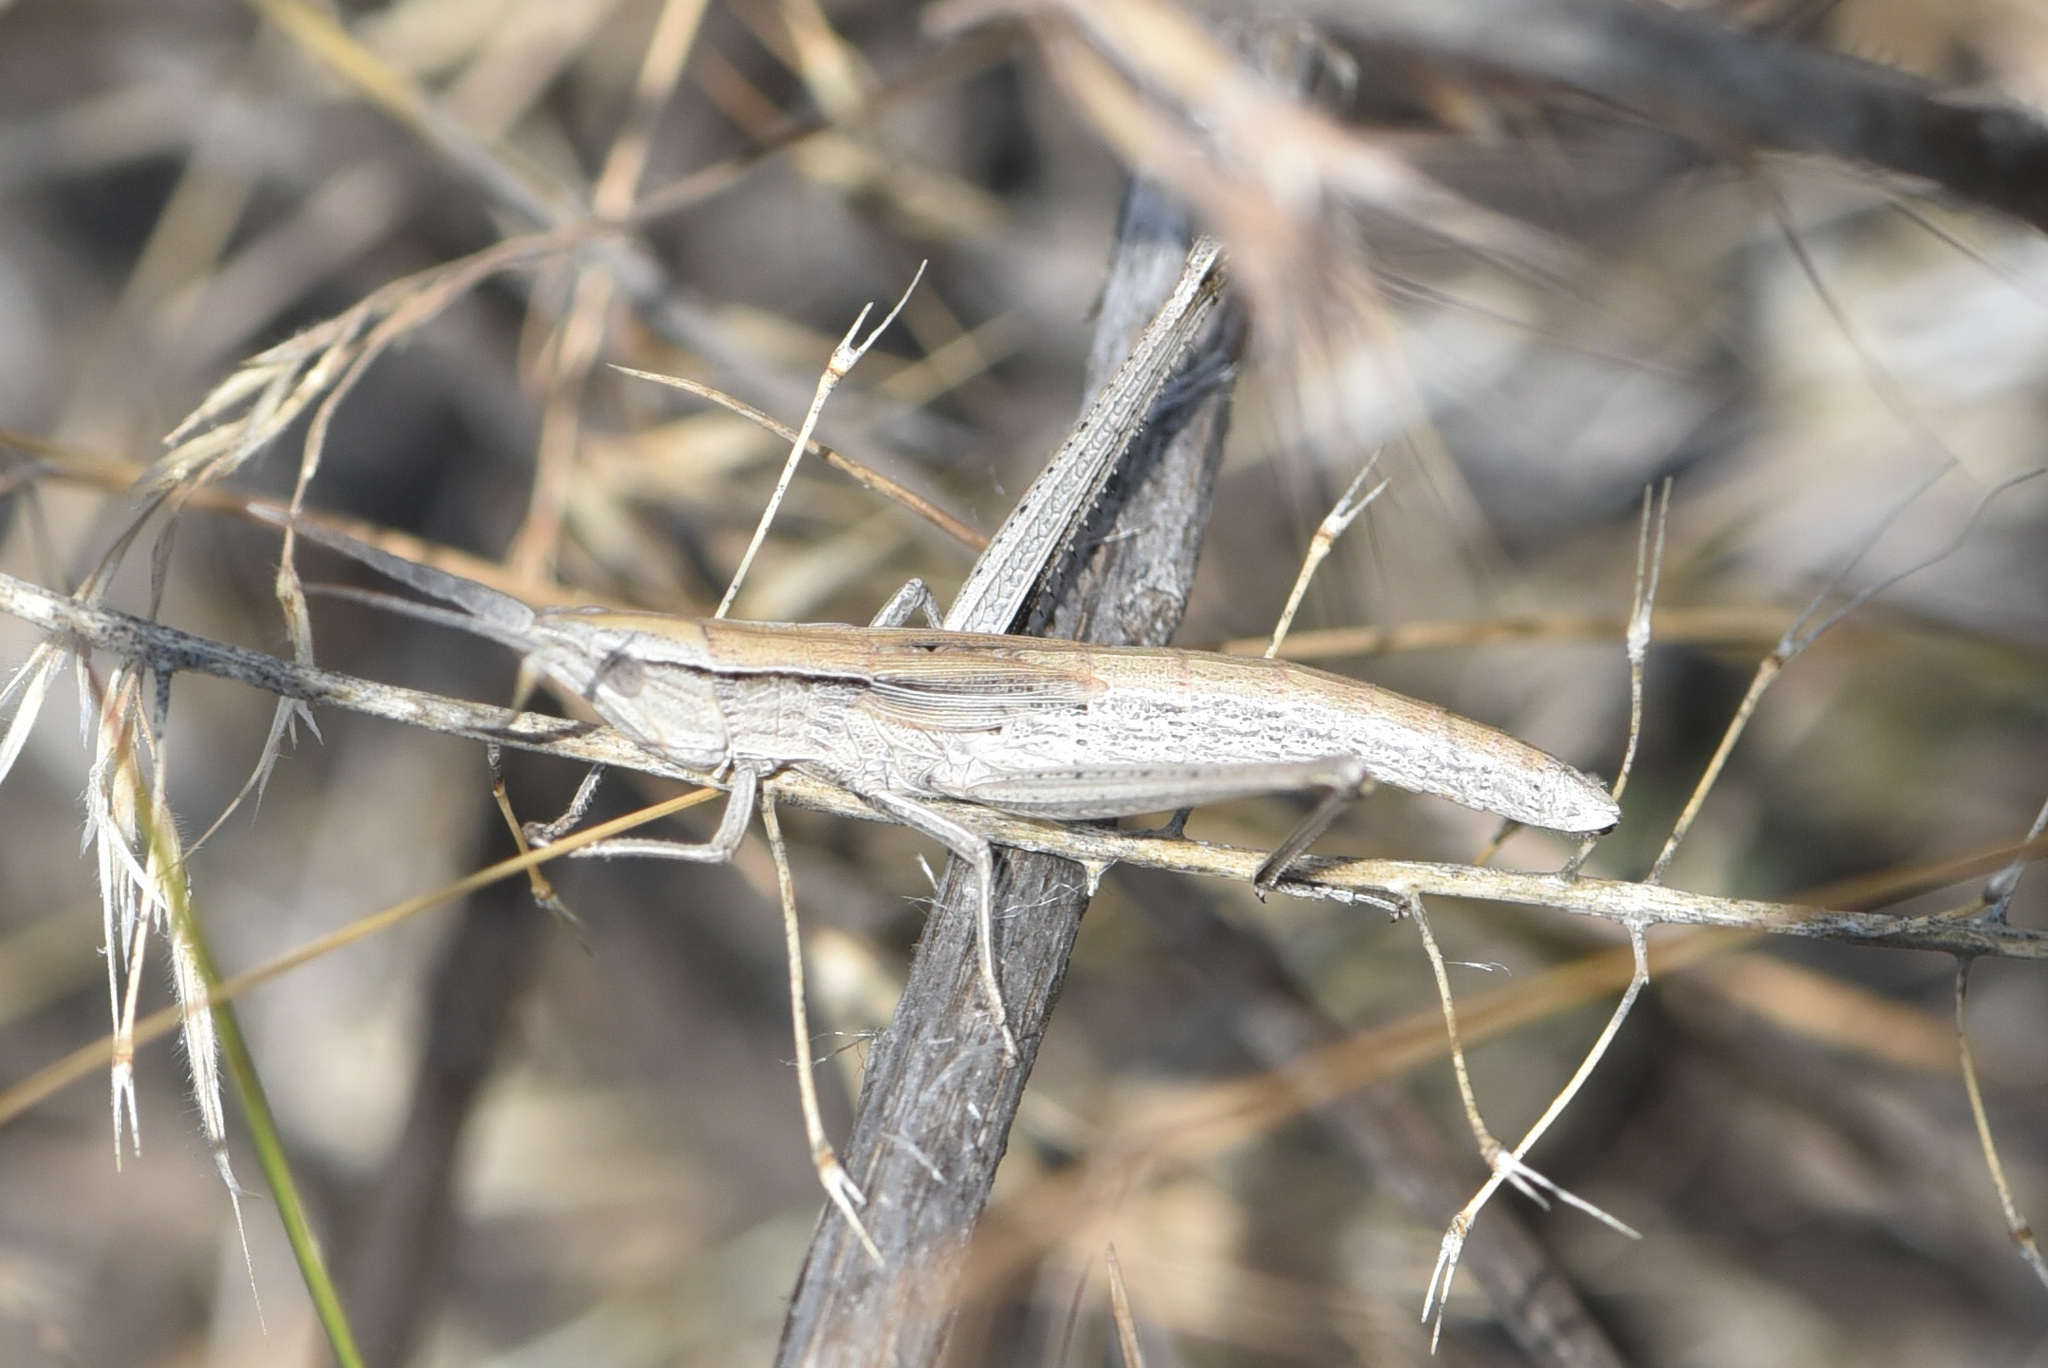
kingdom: Animalia
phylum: Arthropoda
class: Insecta
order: Orthoptera
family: Acrididae
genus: Pseudopomala
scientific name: Pseudopomala brachyptera
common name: Bunchgrass grasshopper
